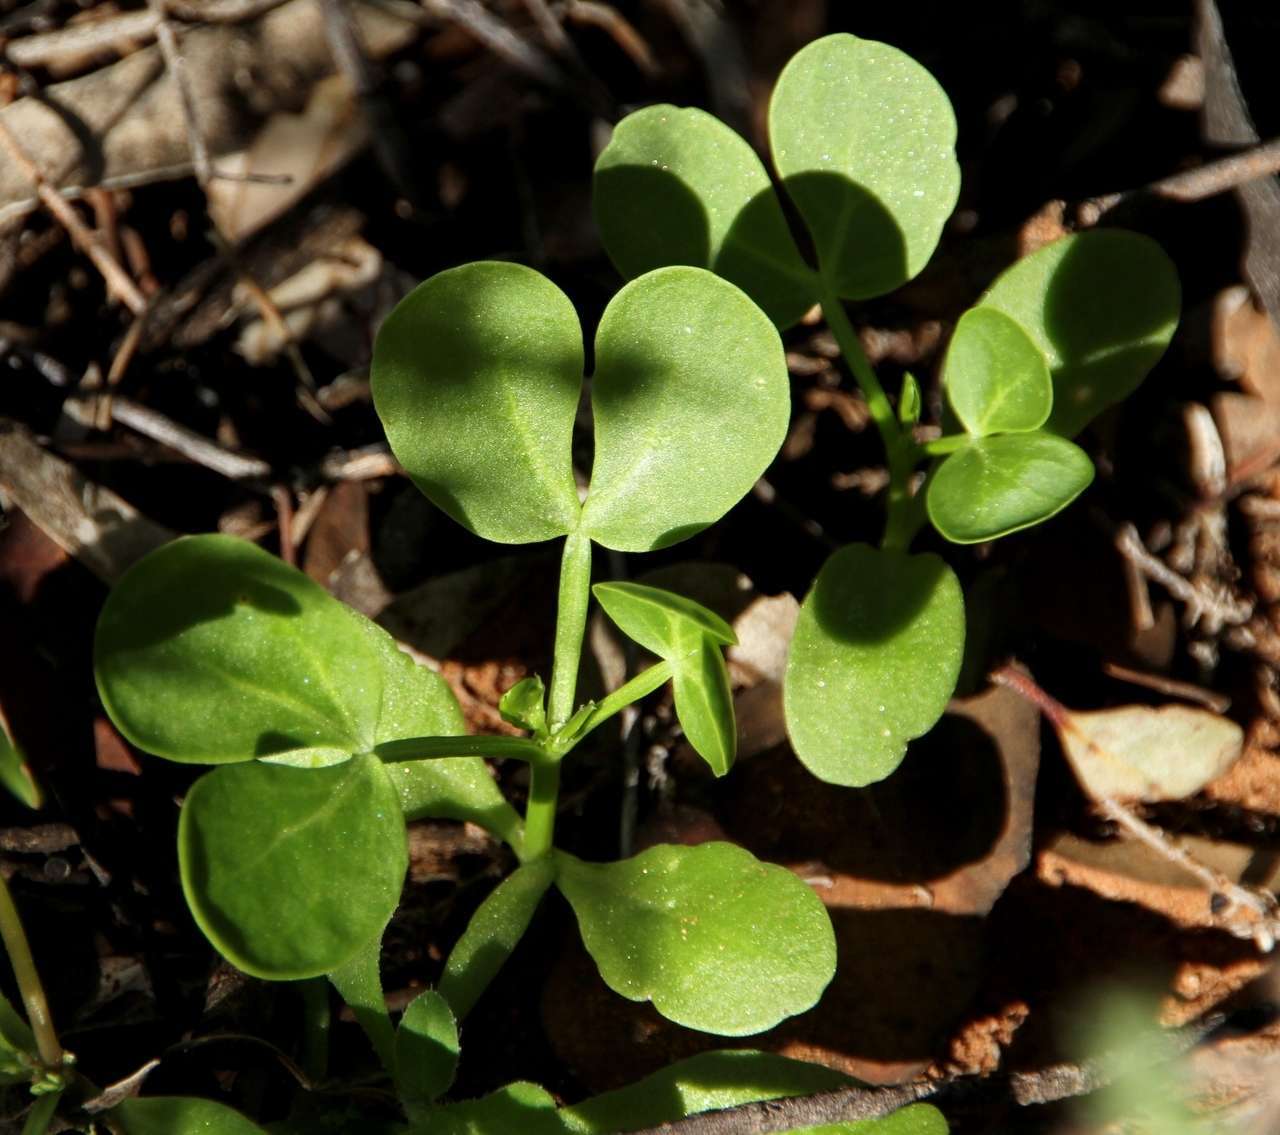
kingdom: Plantae
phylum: Tracheophyta
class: Magnoliopsida
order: Zygophyllales
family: Zygophyllaceae
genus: Roepera
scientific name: Roepera apiculata
